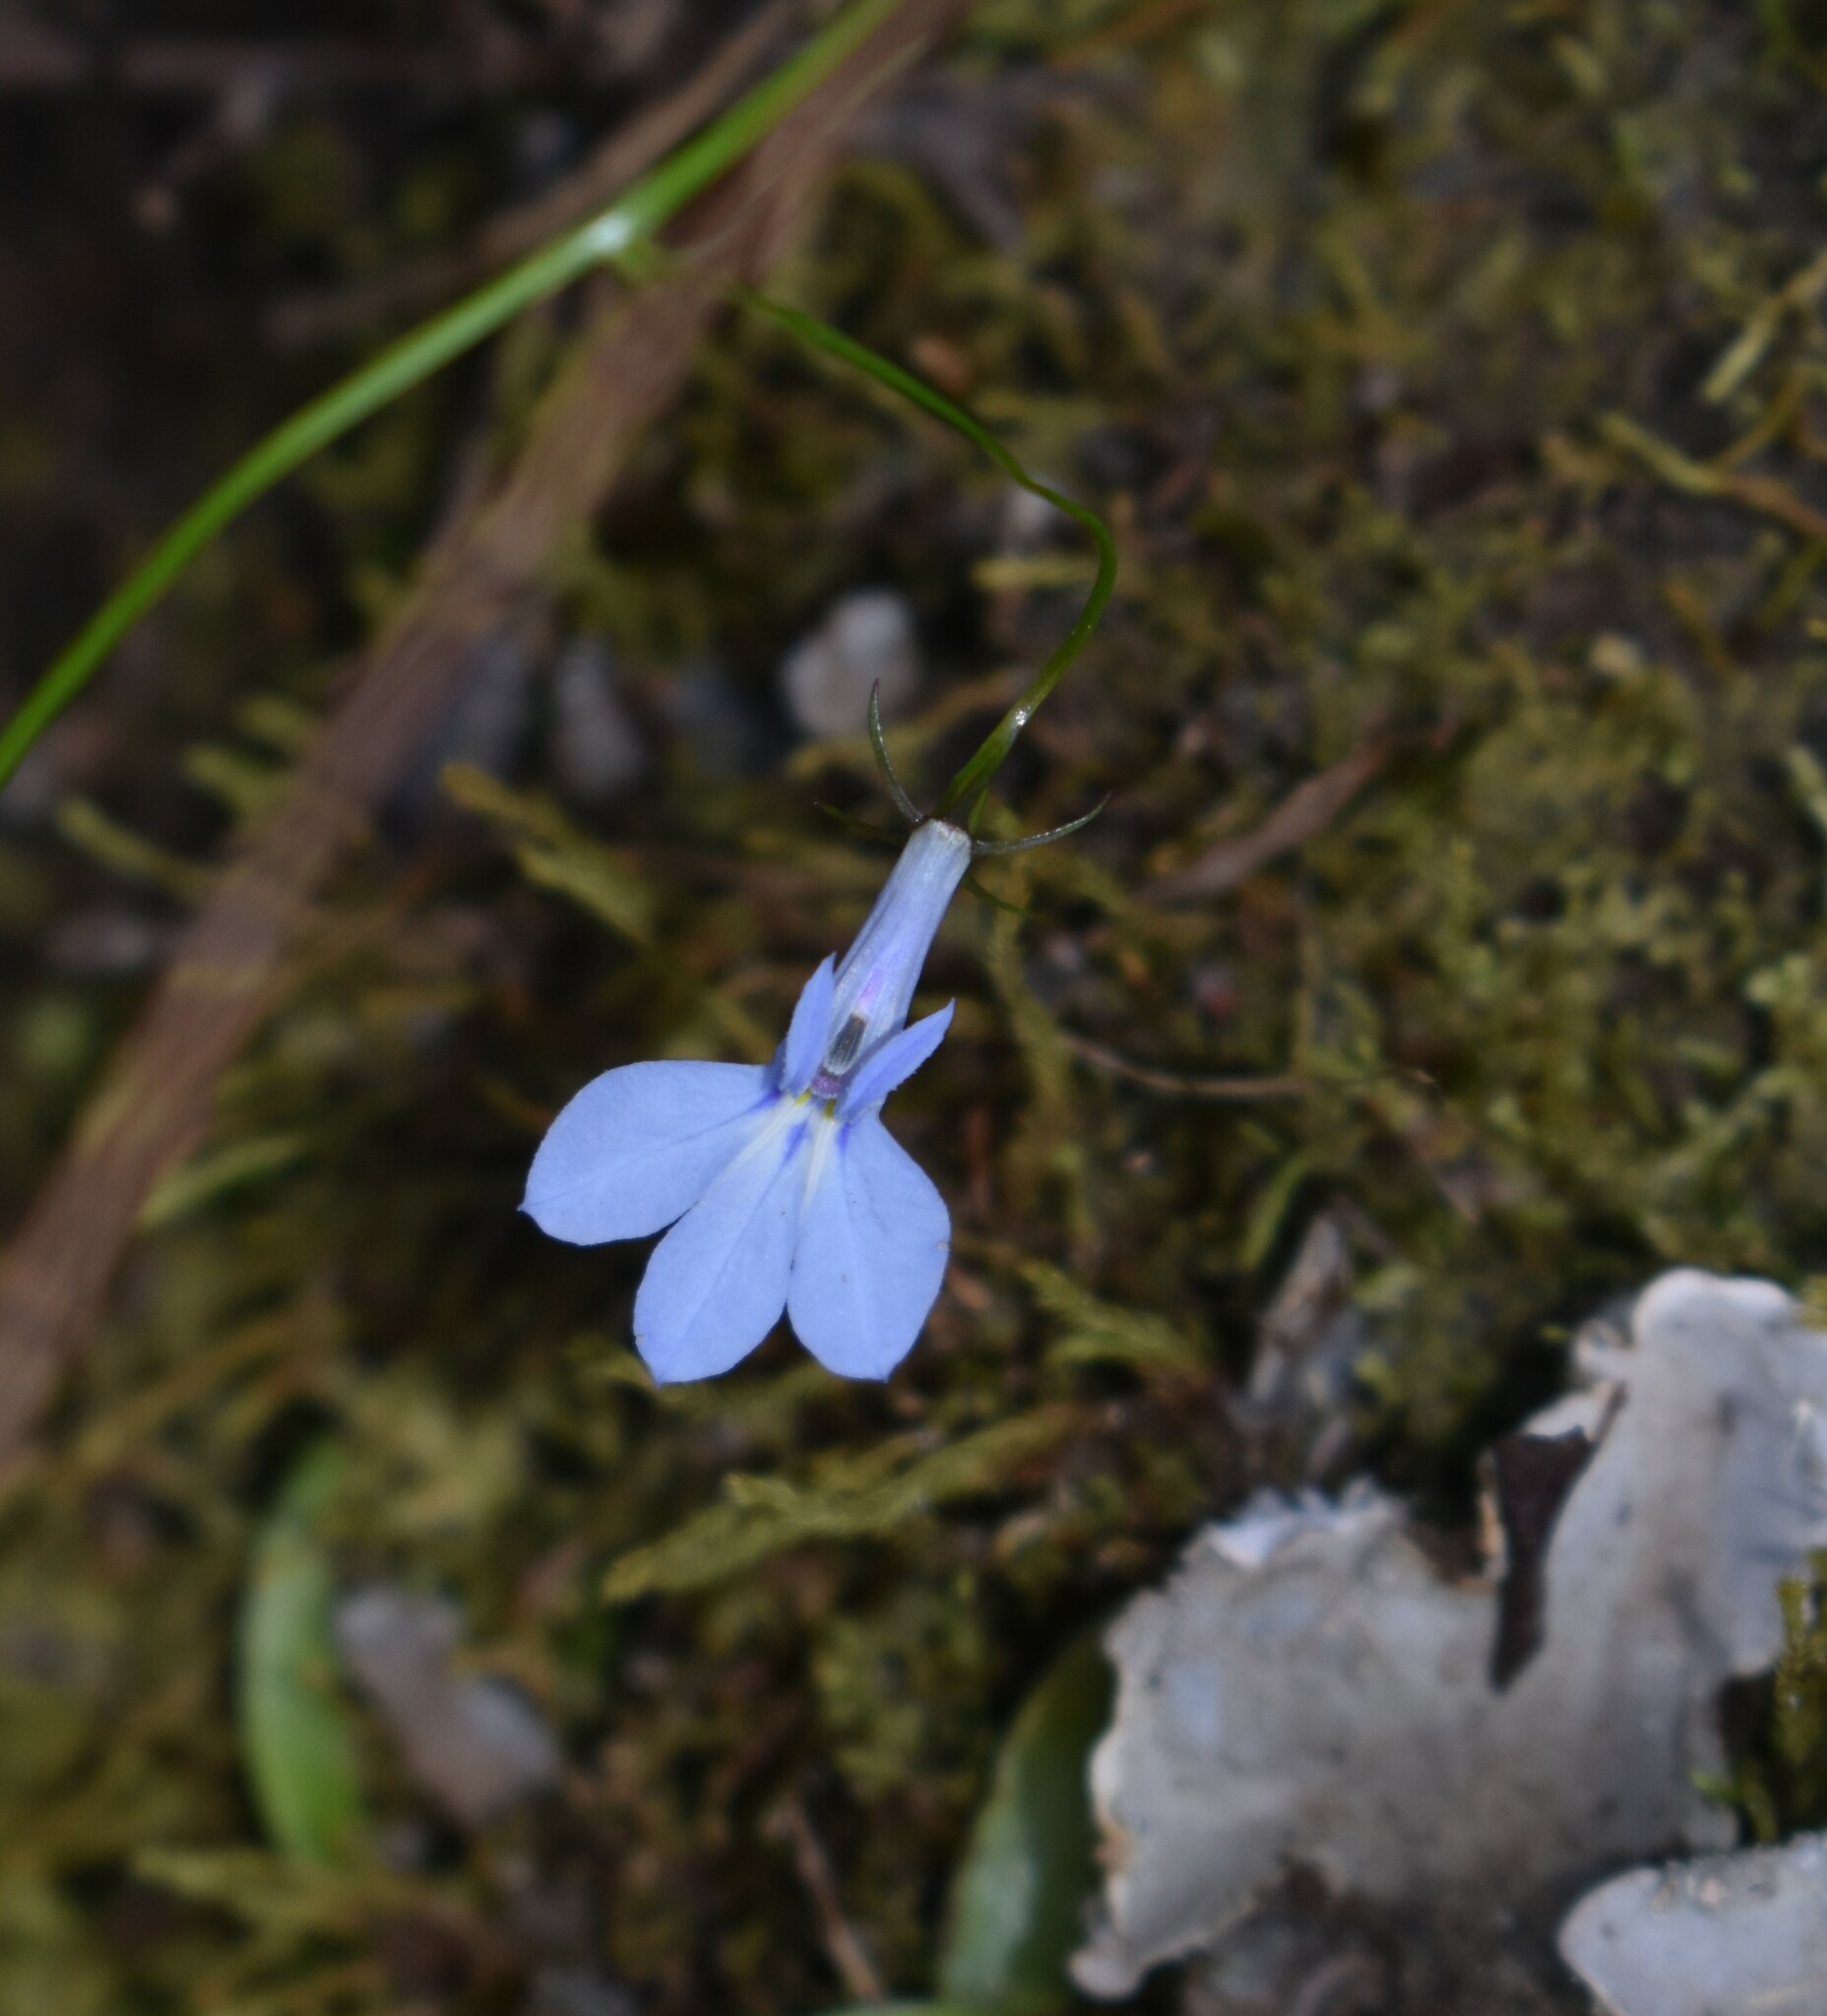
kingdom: Plantae
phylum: Tracheophyta
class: Magnoliopsida
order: Asterales
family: Campanulaceae
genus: Lobelia
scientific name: Lobelia erinus
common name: Edging lobelia
